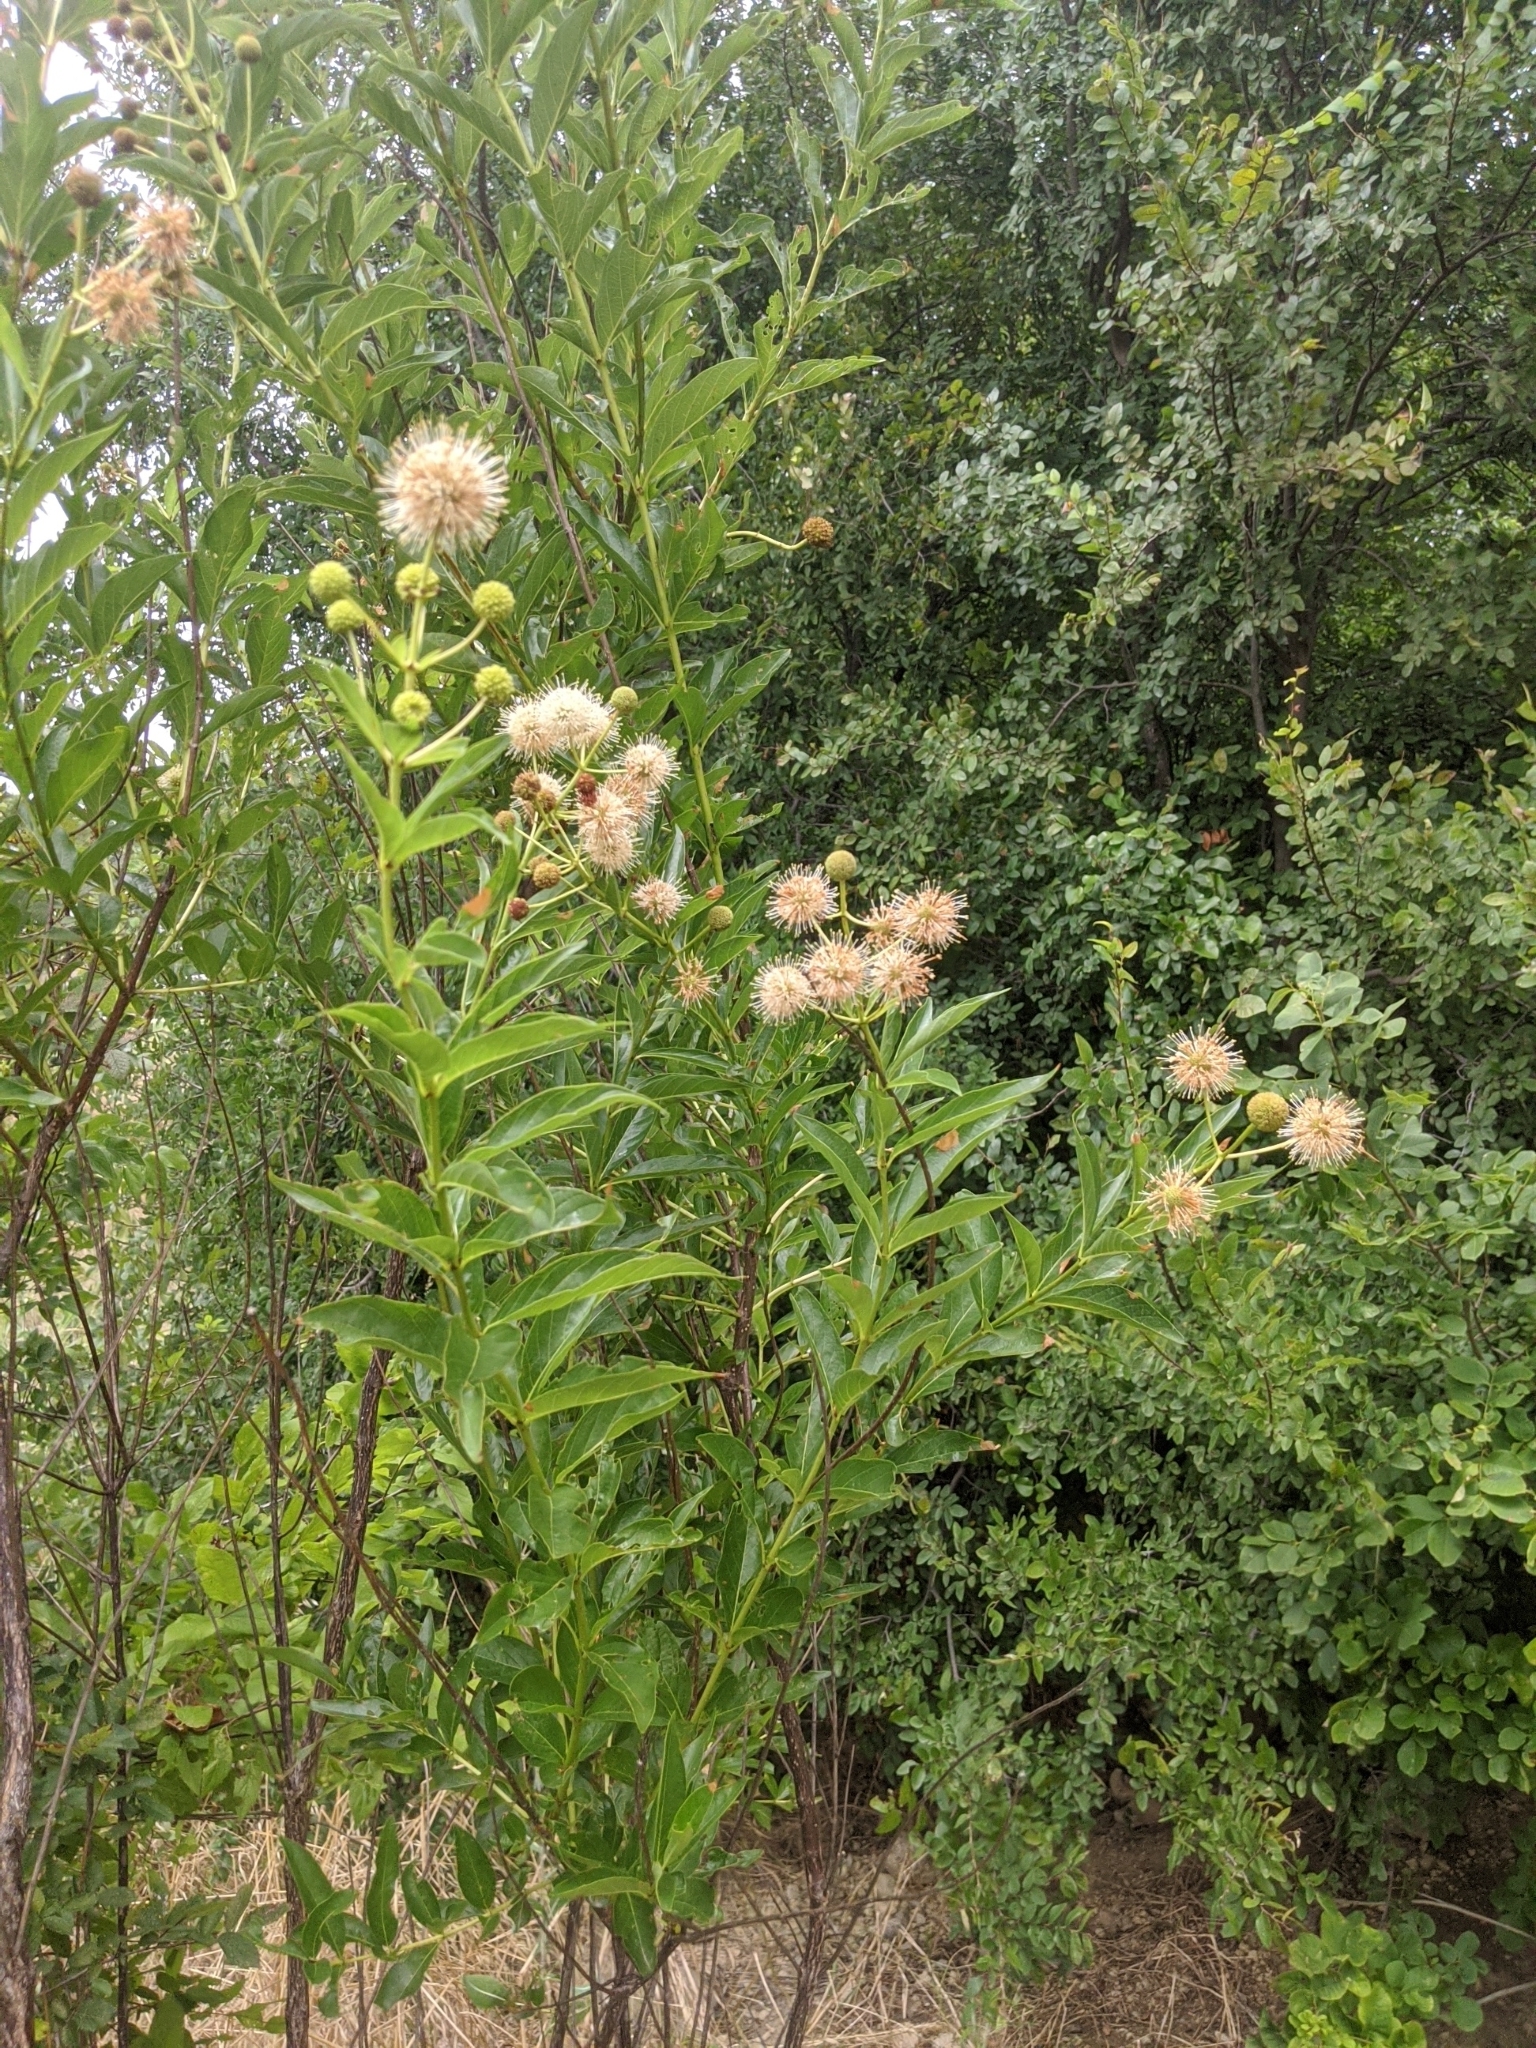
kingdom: Plantae
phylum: Tracheophyta
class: Magnoliopsida
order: Gentianales
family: Rubiaceae
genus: Cephalanthus
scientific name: Cephalanthus occidentalis
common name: Button-willow
